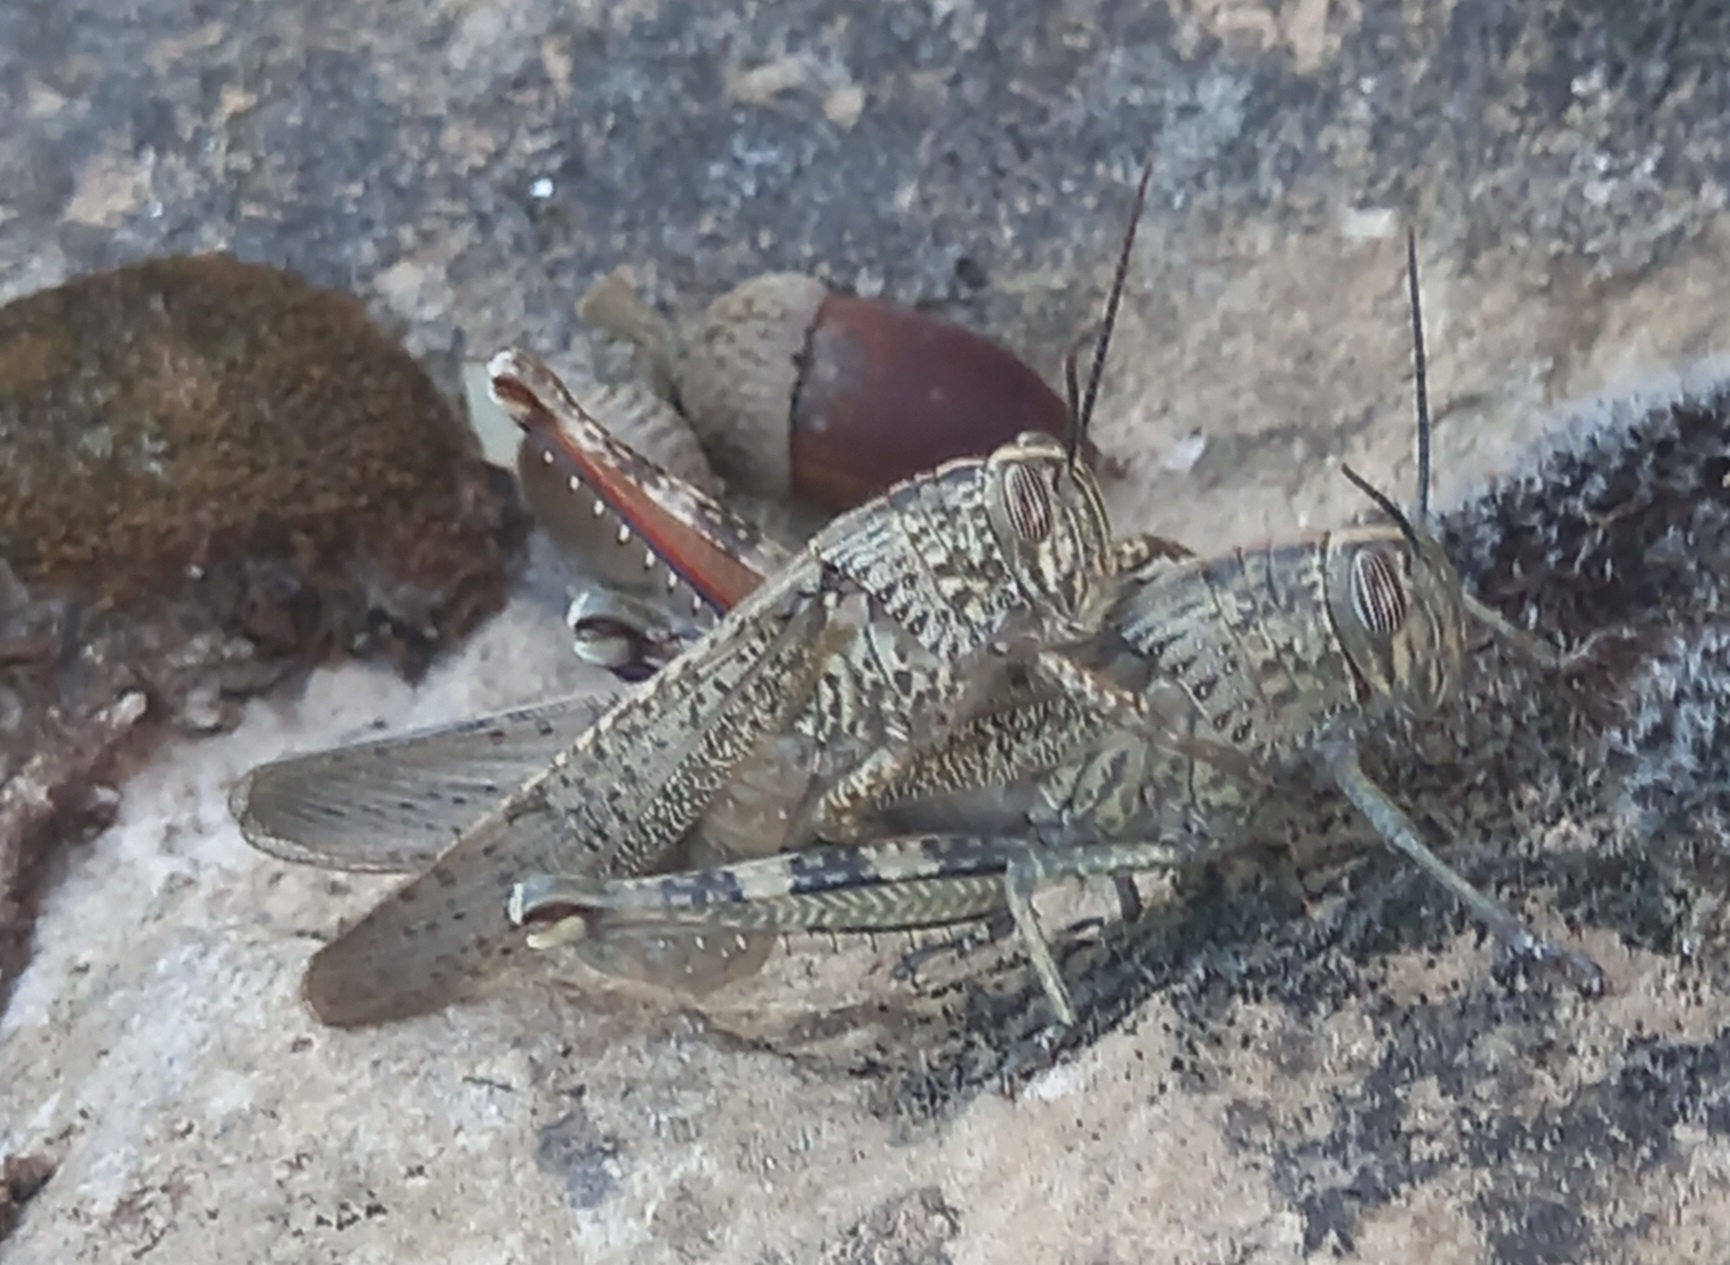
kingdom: Animalia
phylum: Arthropoda
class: Insecta
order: Orthoptera
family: Acrididae
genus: Anacridium
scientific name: Anacridium aegyptium
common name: Egyptian grasshopper
